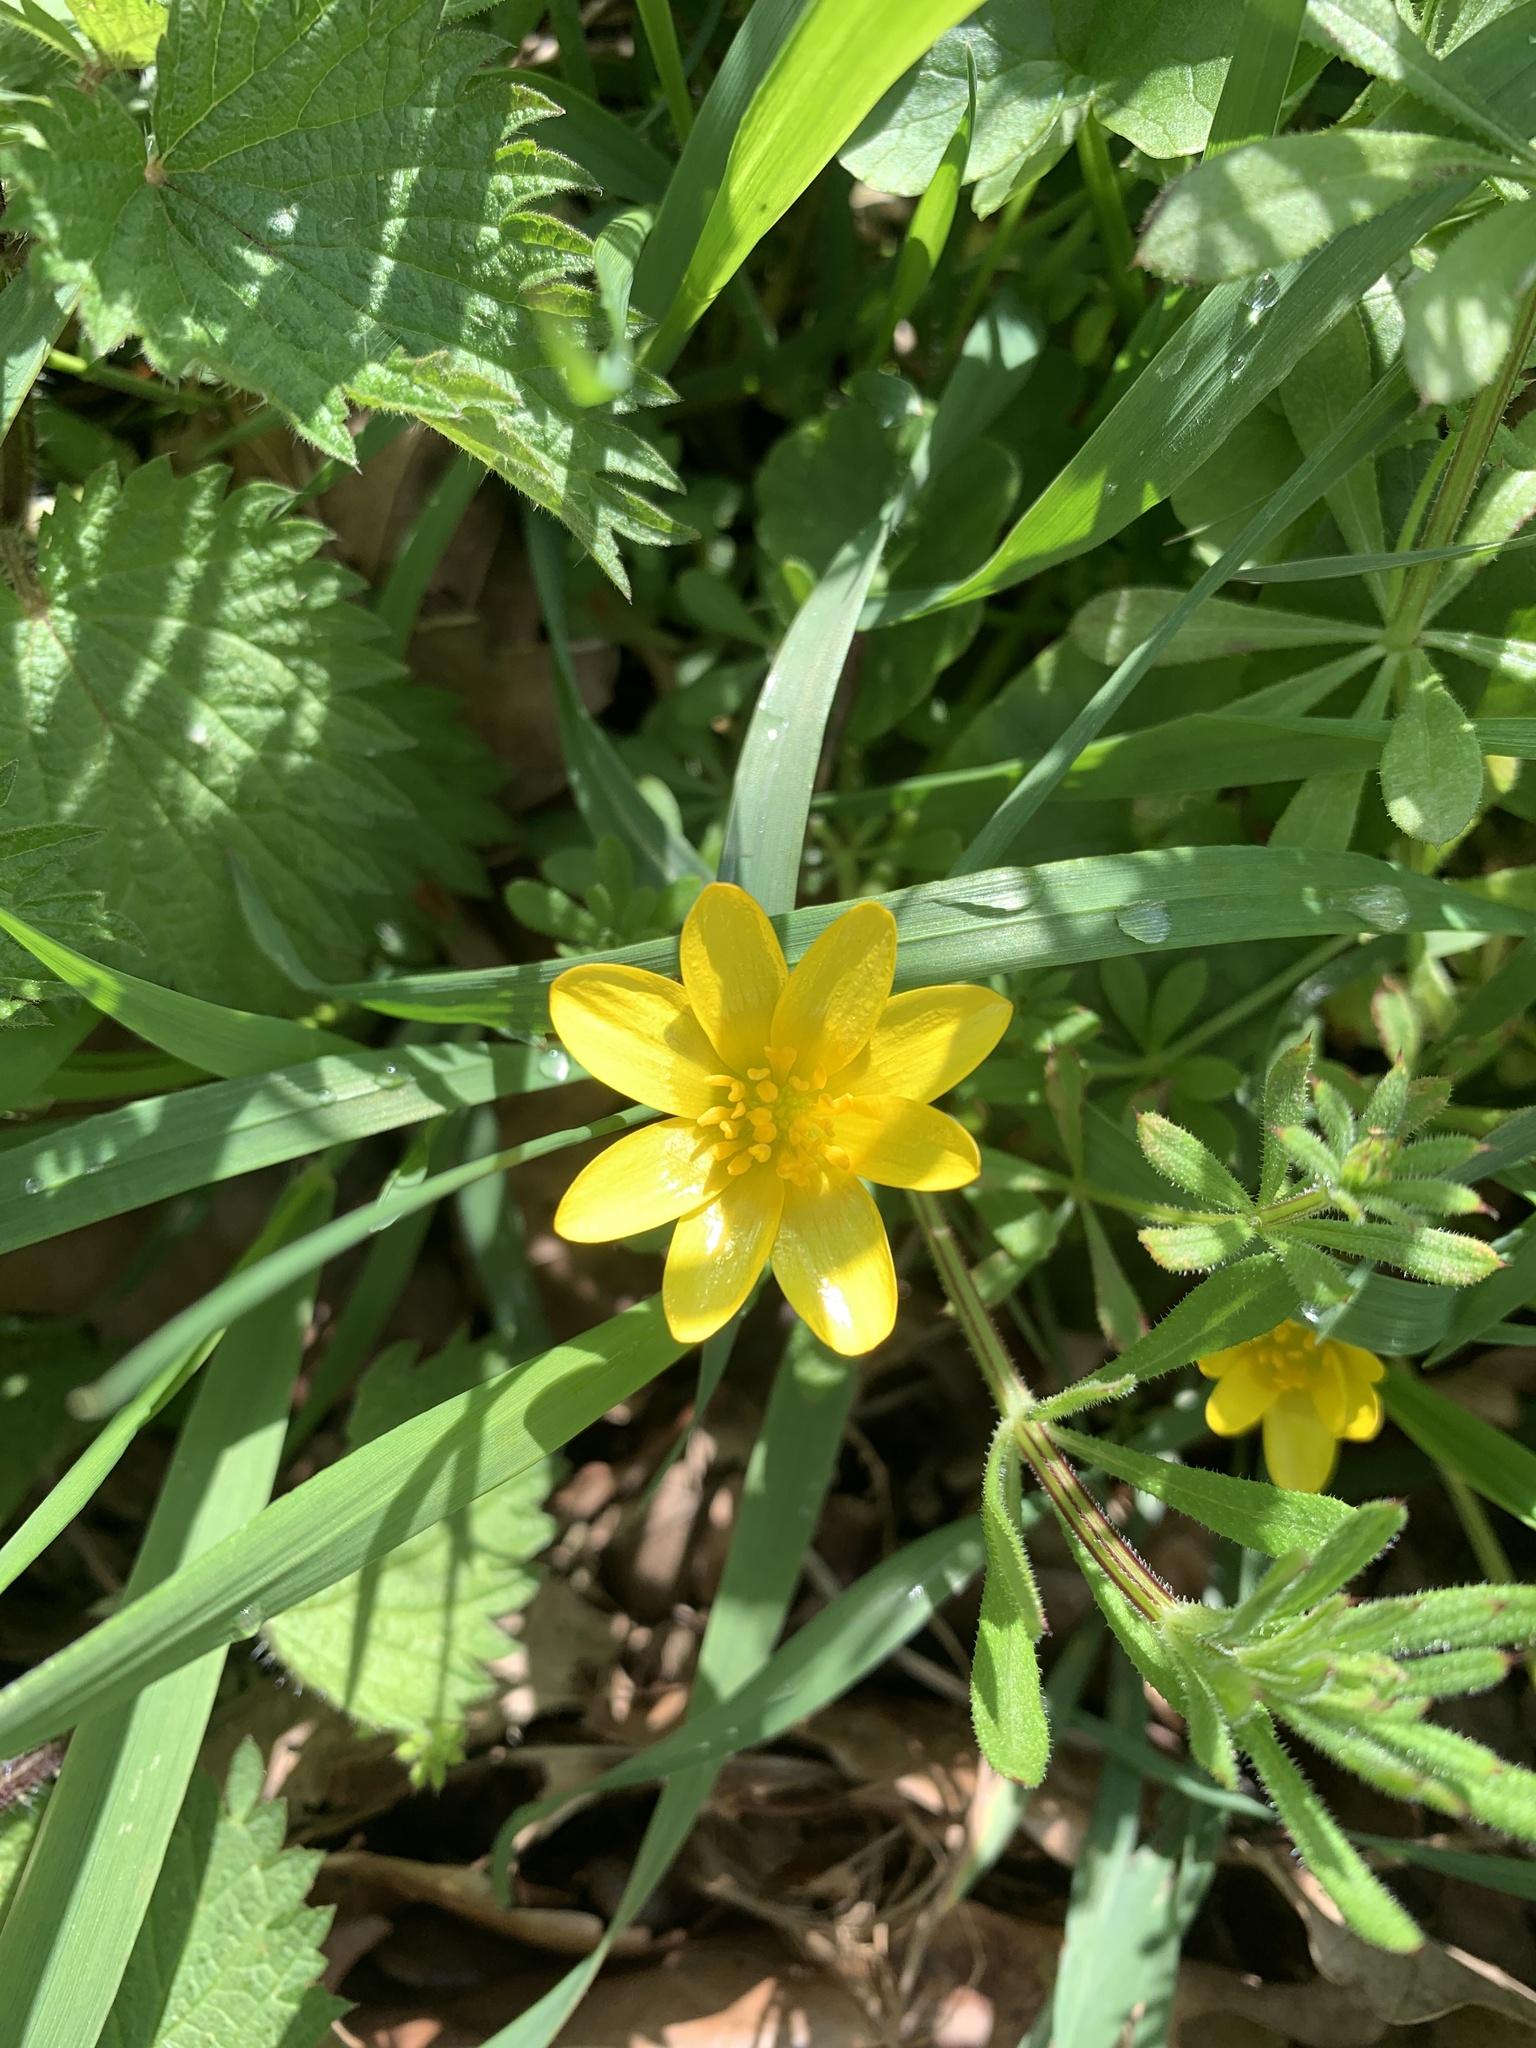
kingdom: Plantae
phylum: Tracheophyta
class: Magnoliopsida
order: Ranunculales
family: Ranunculaceae
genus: Ficaria
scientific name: Ficaria verna
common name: Lesser celandine
